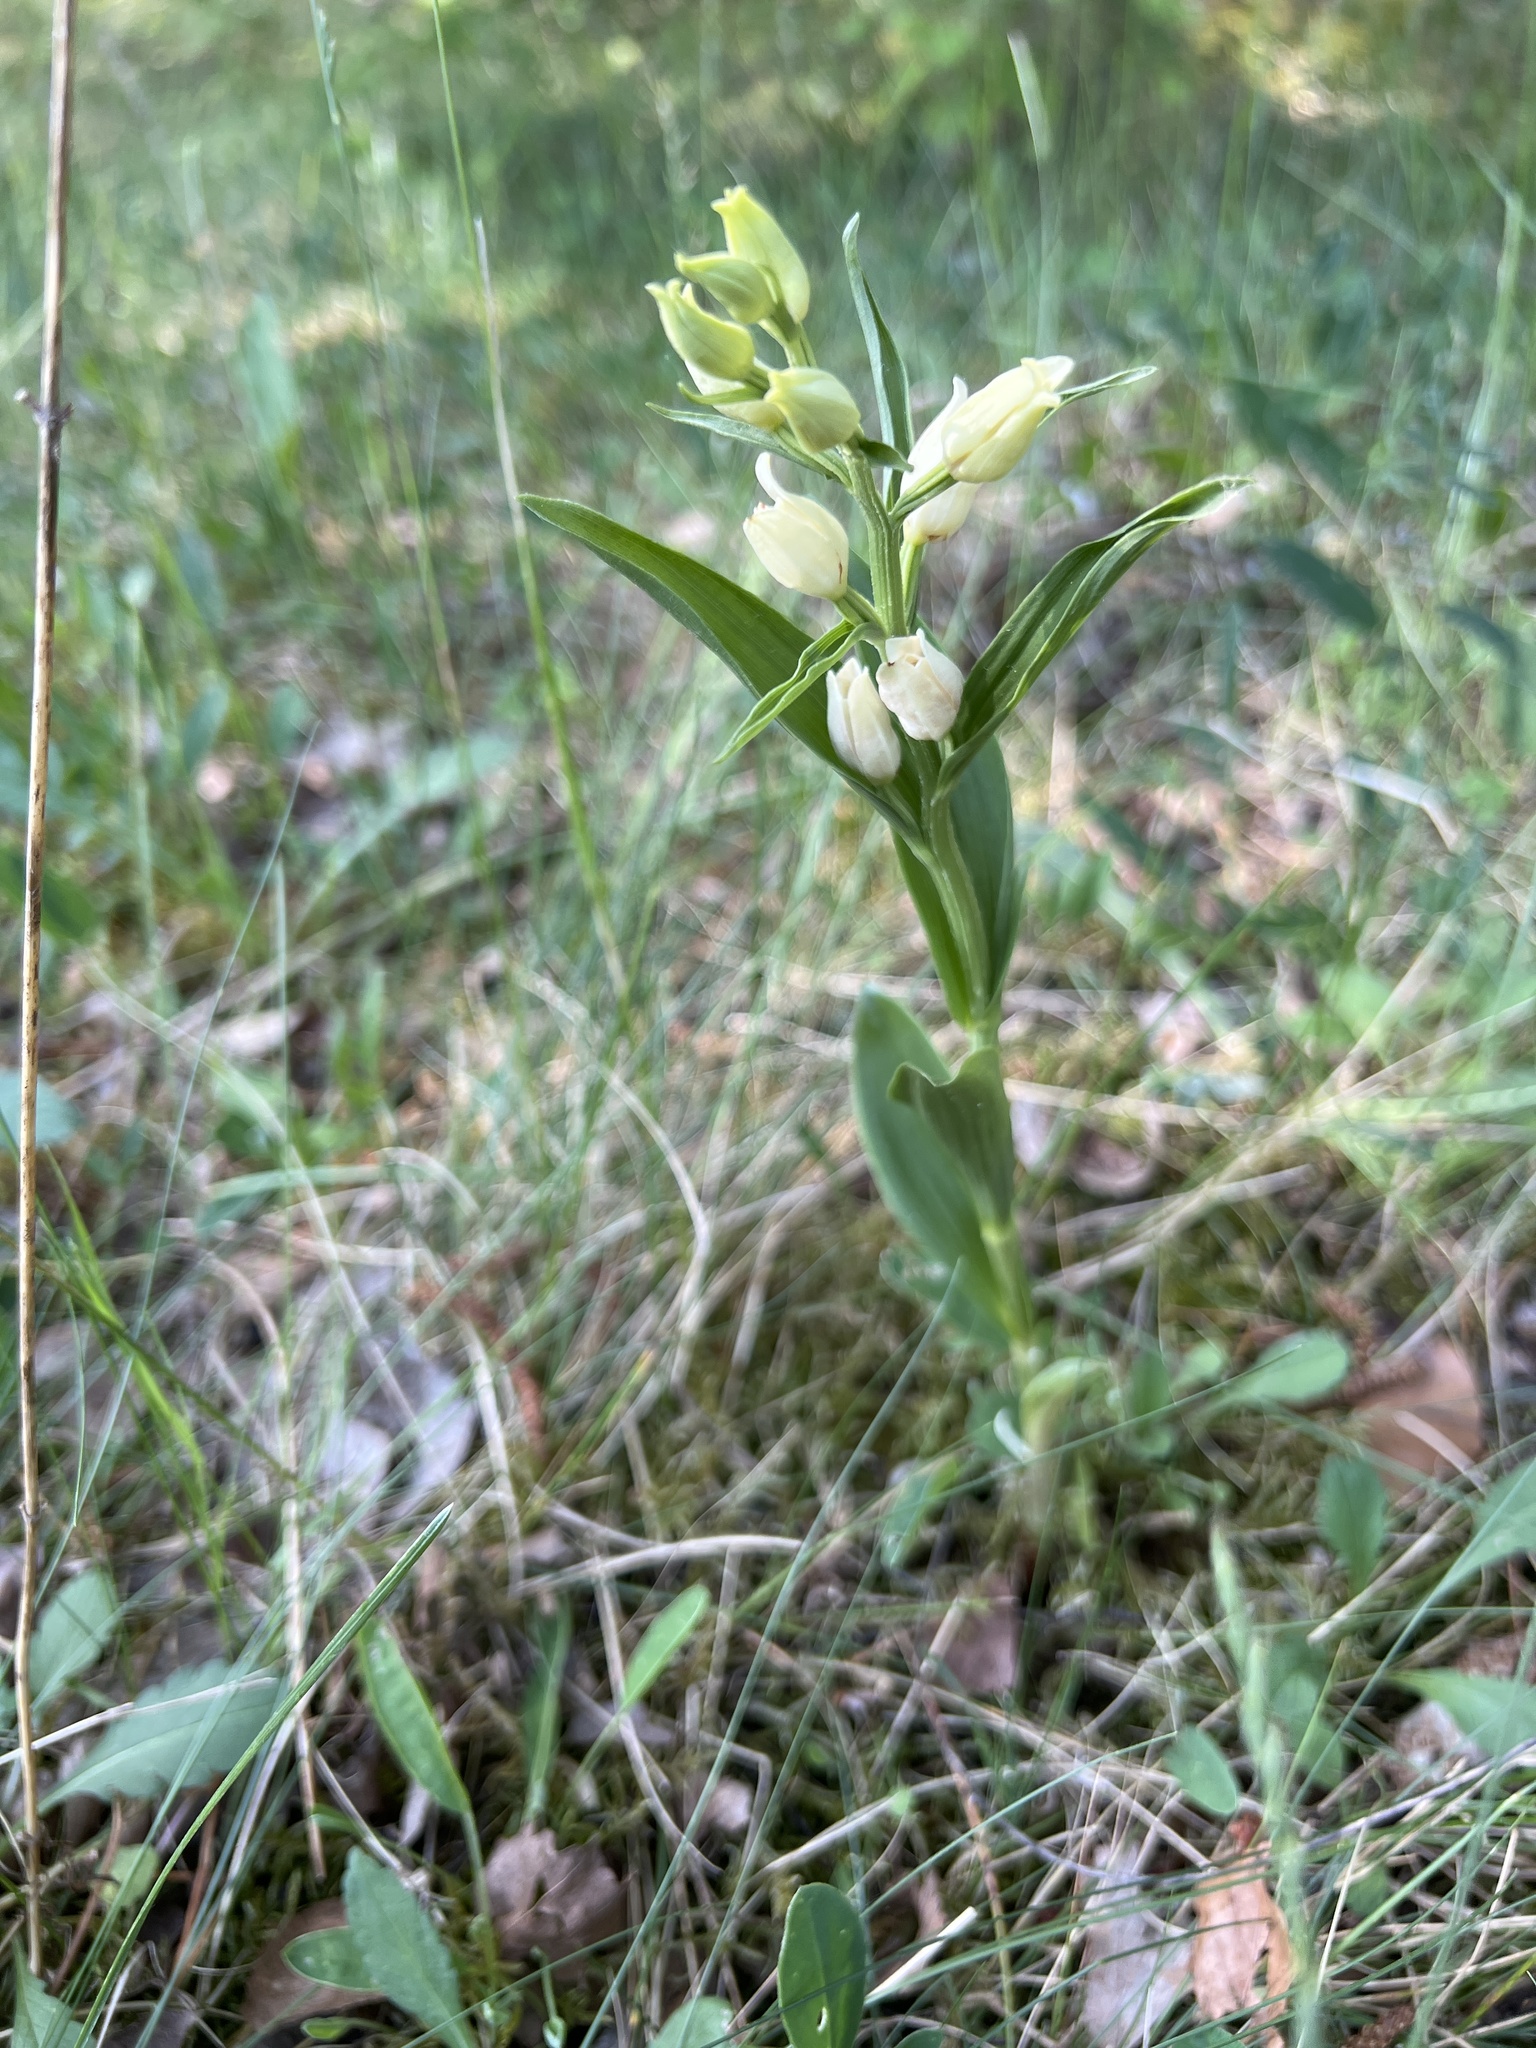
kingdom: Plantae
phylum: Tracheophyta
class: Liliopsida
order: Asparagales
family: Orchidaceae
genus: Cephalanthera
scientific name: Cephalanthera damasonium
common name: White helleborine
